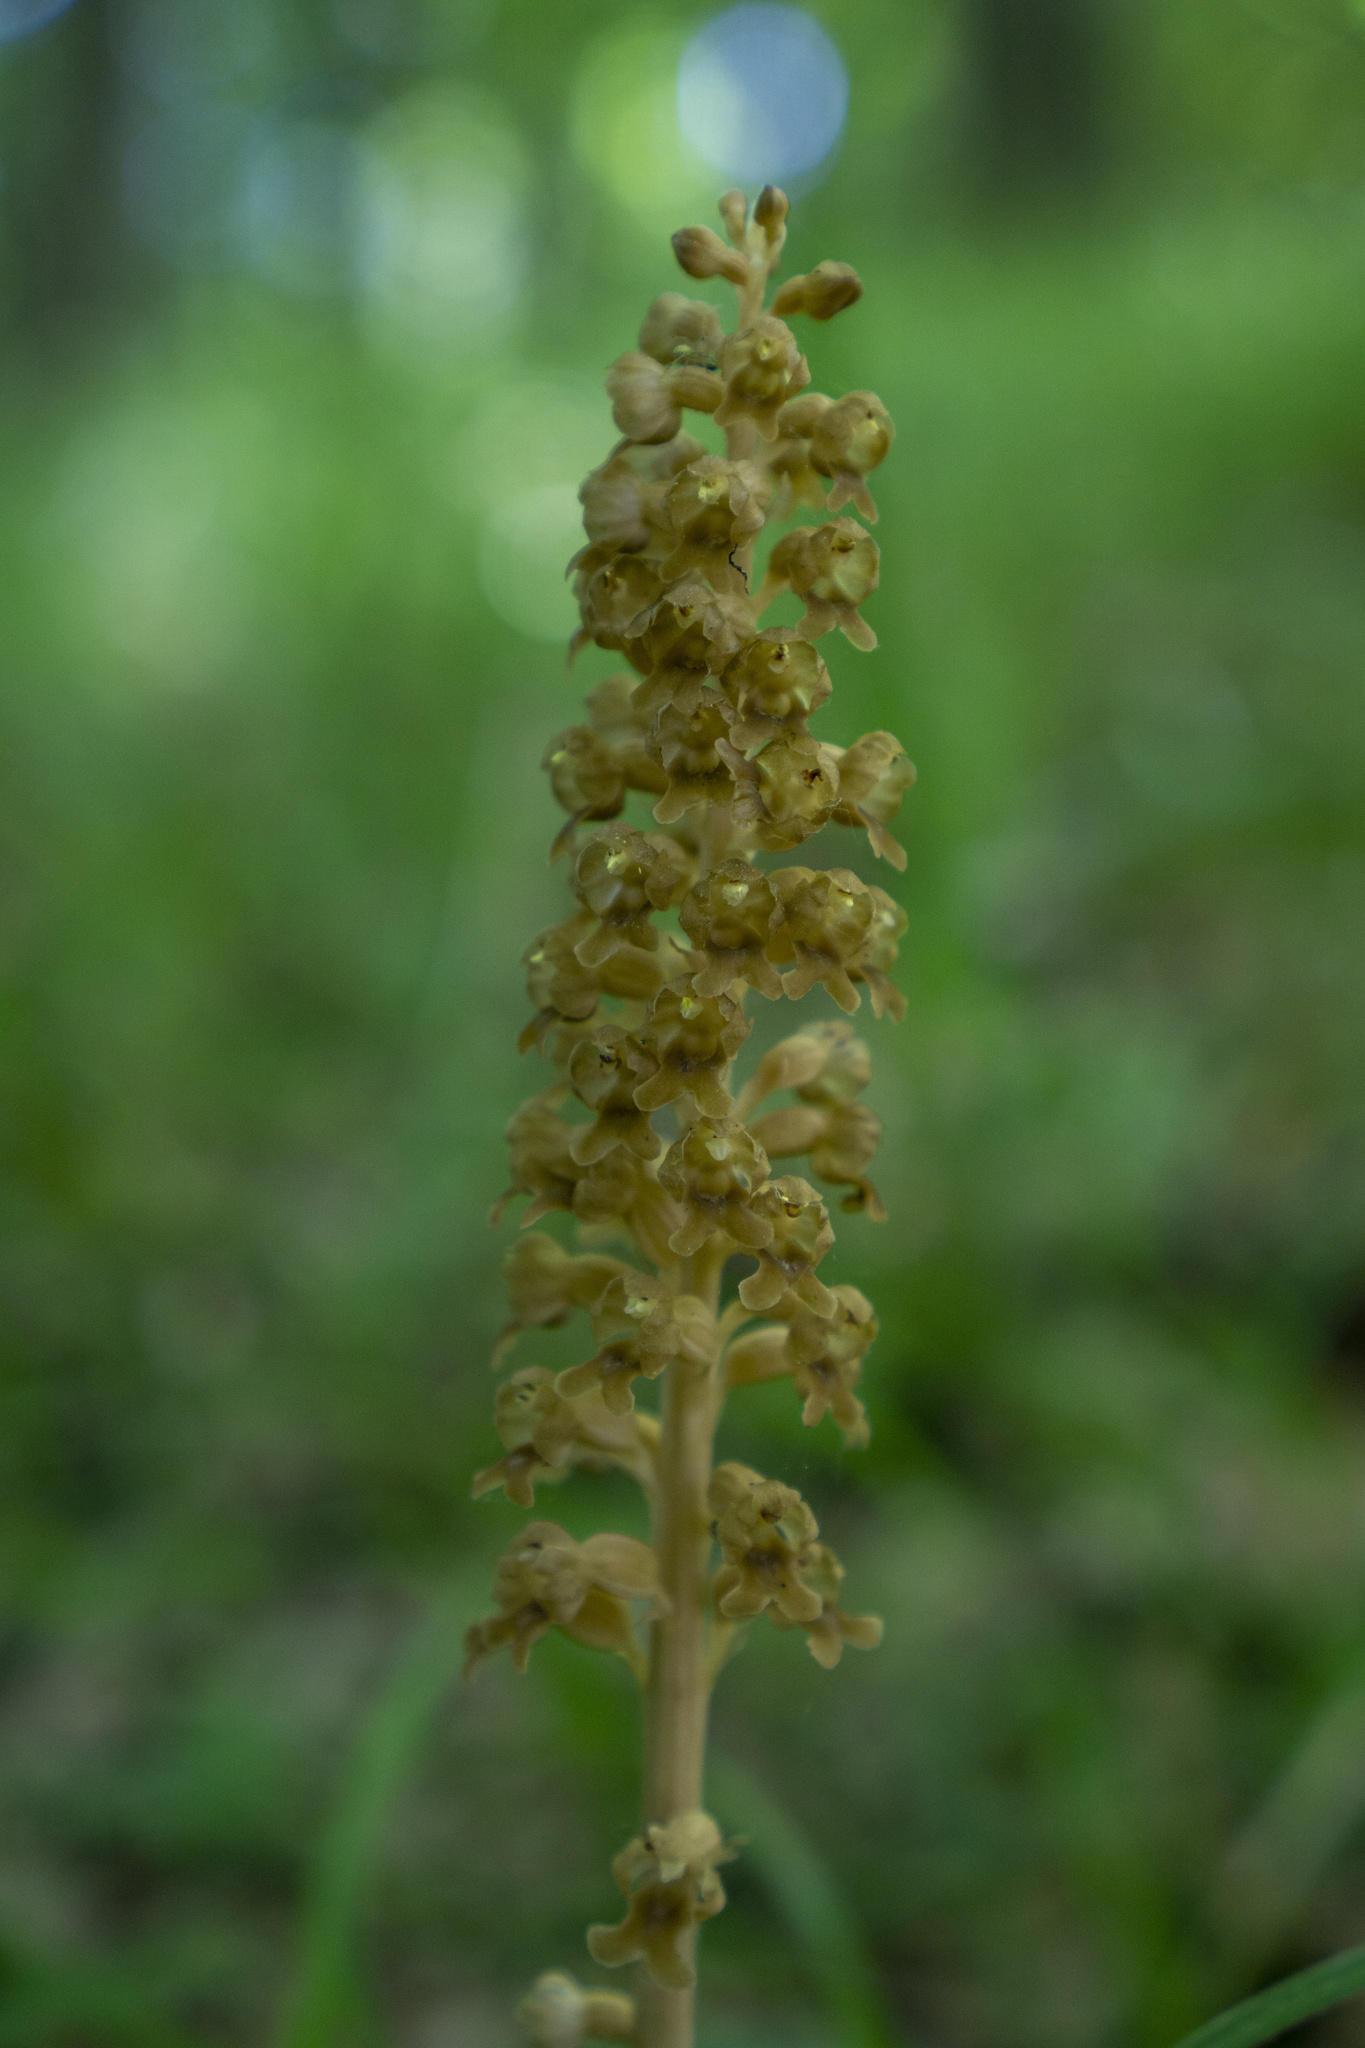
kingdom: Plantae
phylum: Tracheophyta
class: Liliopsida
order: Asparagales
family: Orchidaceae
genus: Neottia
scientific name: Neottia nidus-avis
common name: Bird's-nest orchid
